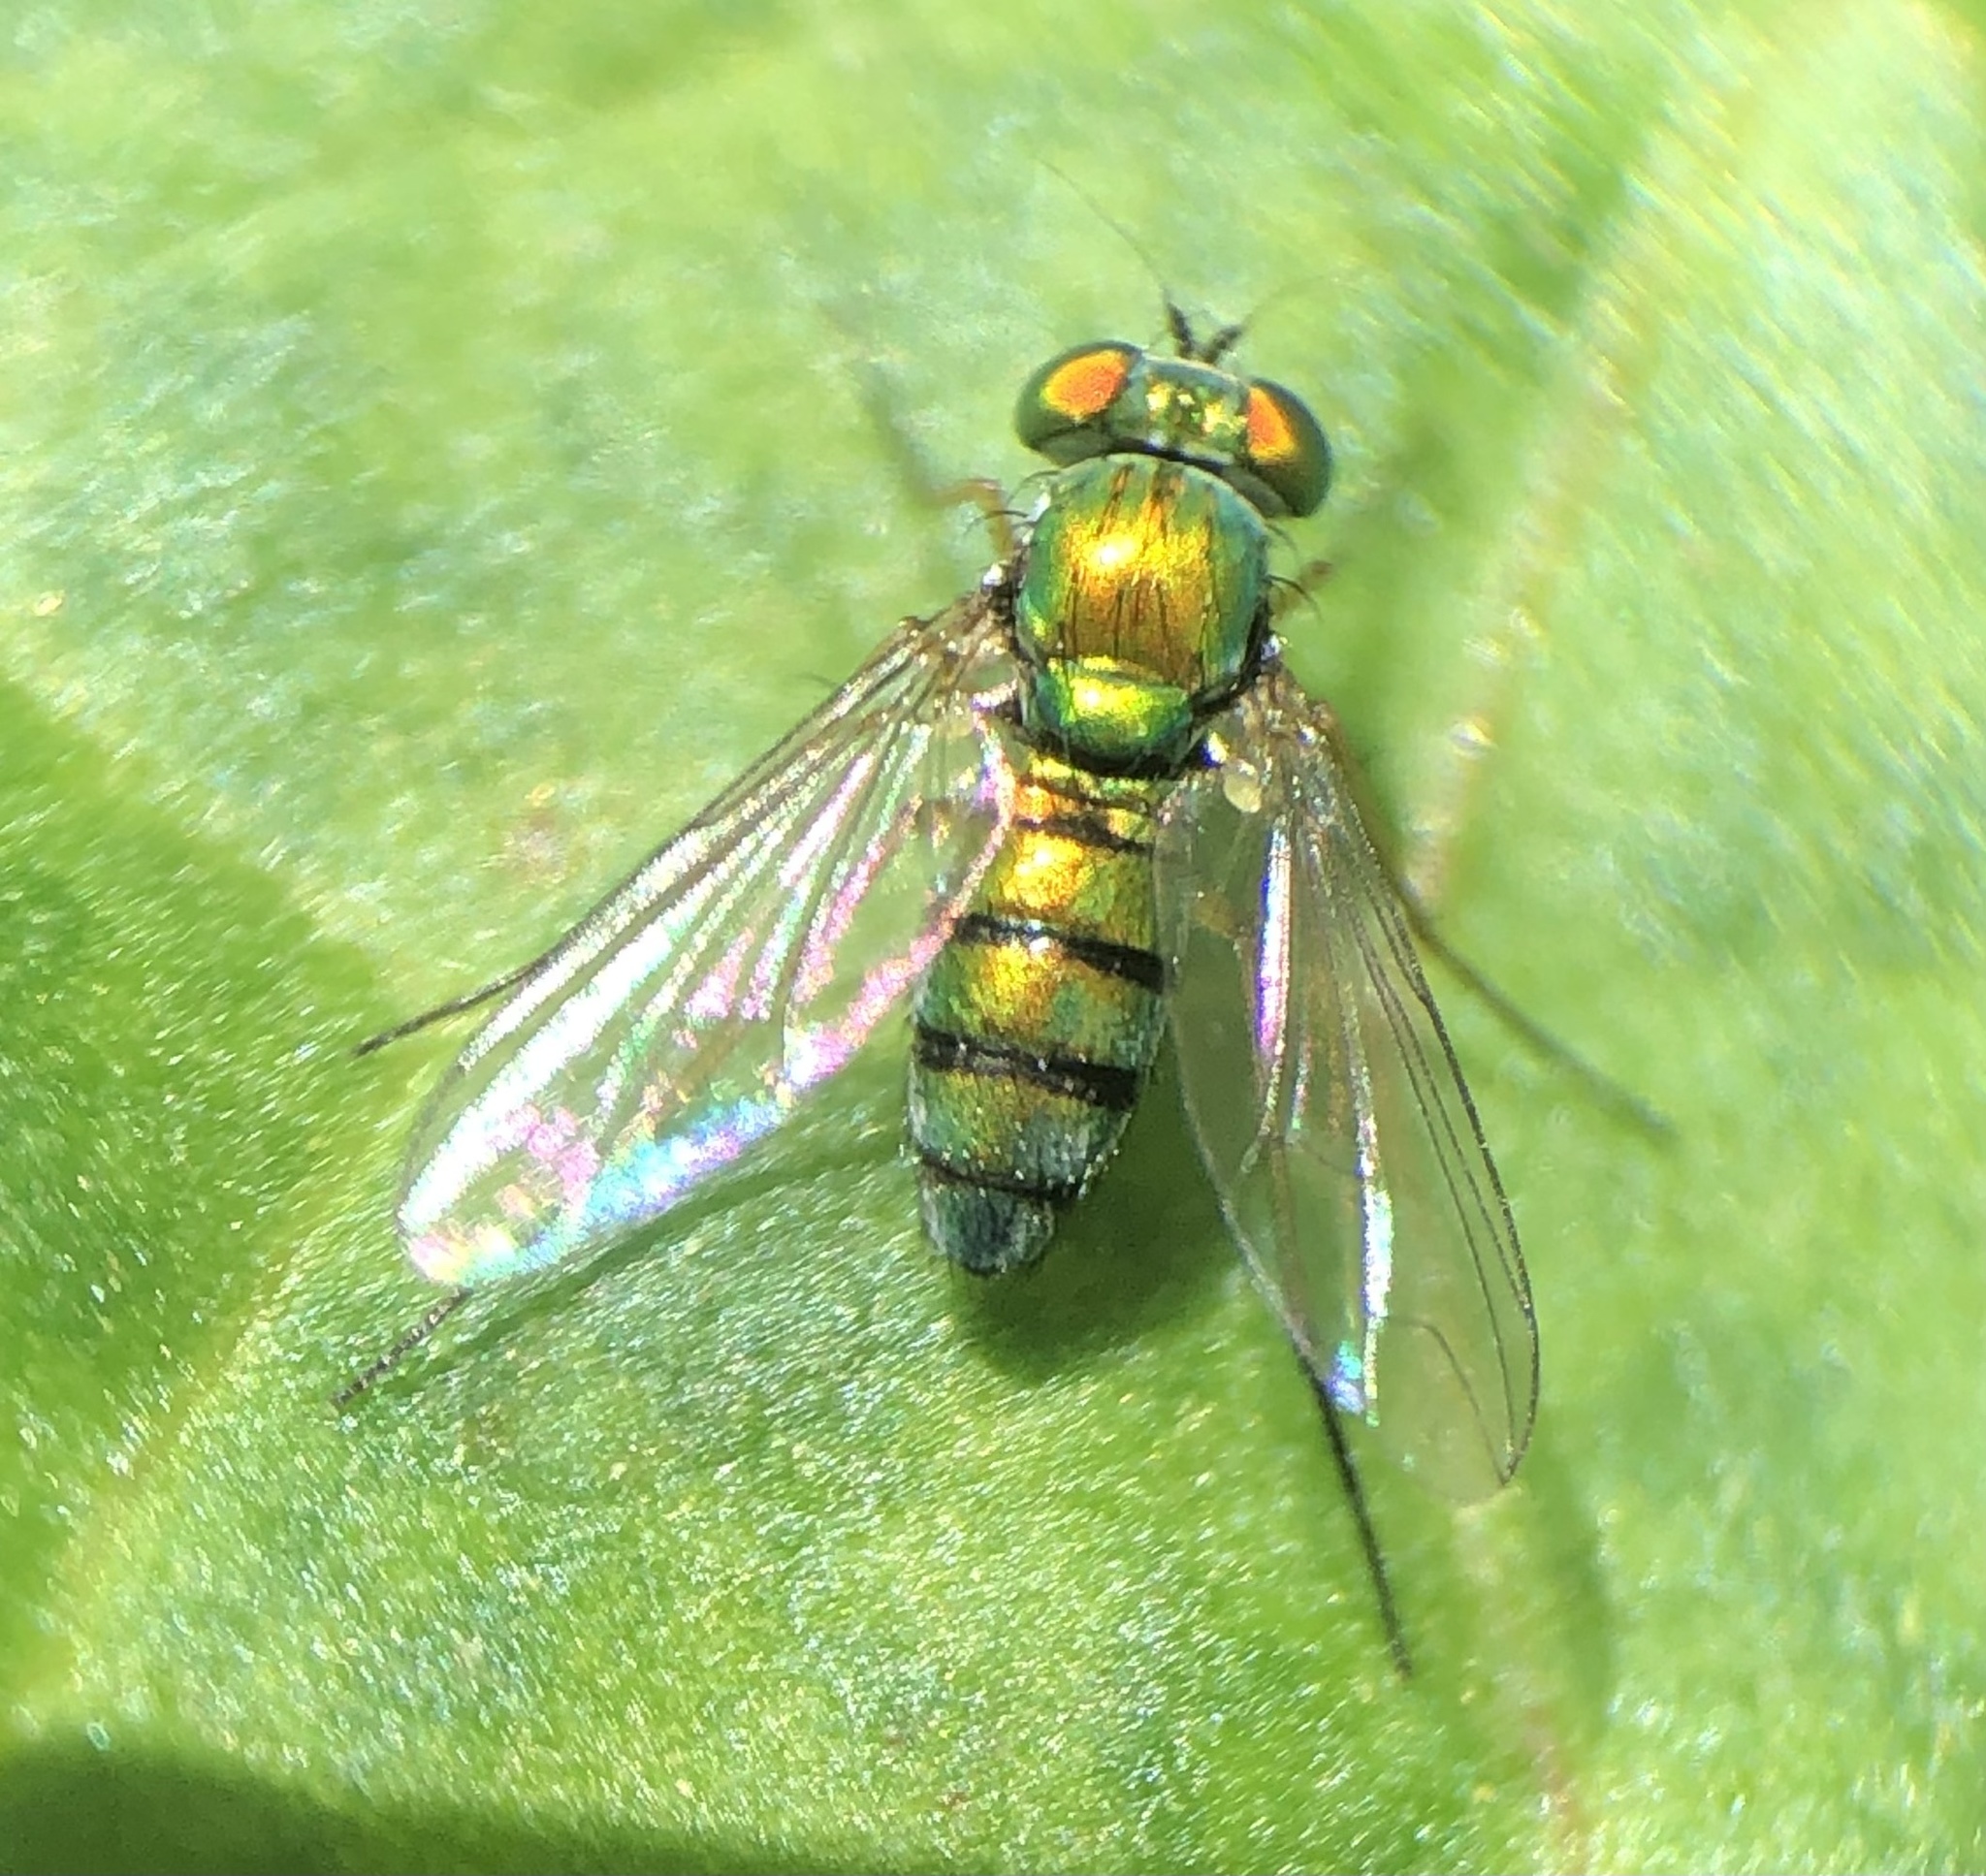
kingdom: Animalia
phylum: Arthropoda
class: Insecta
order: Diptera
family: Dolichopodidae
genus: Condylostylus
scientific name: Condylostylus
